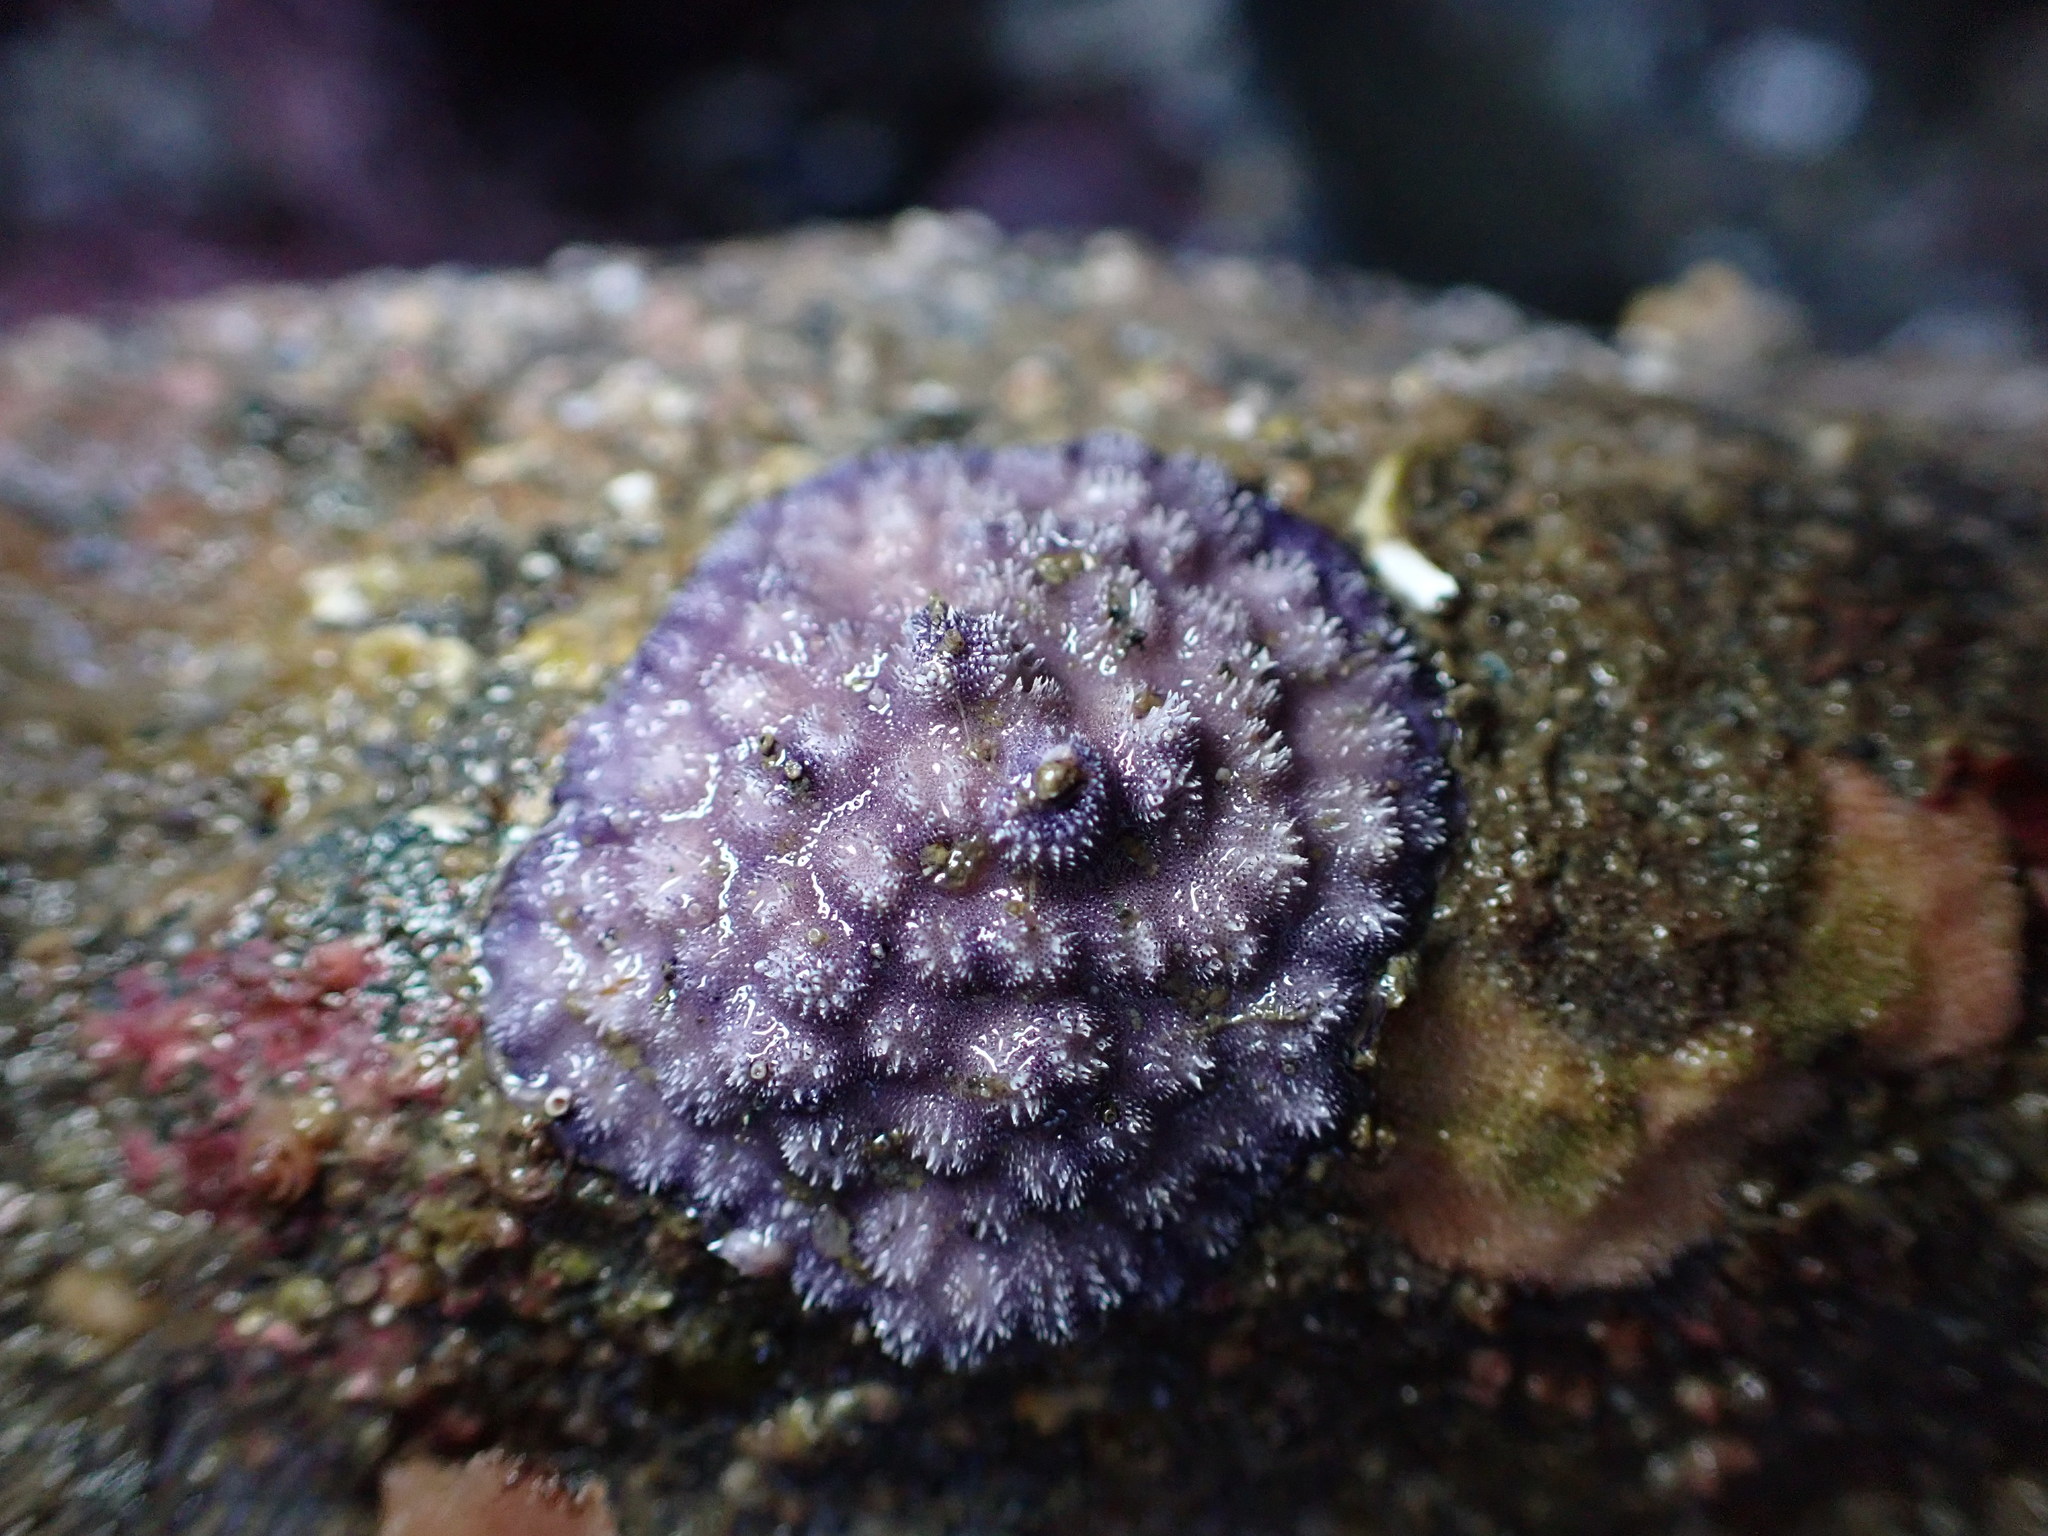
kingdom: Animalia
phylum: Bryozoa
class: Stenolaemata
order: Cyclostomatida
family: Lichenoporidae
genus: Disporella
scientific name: Disporella separata
